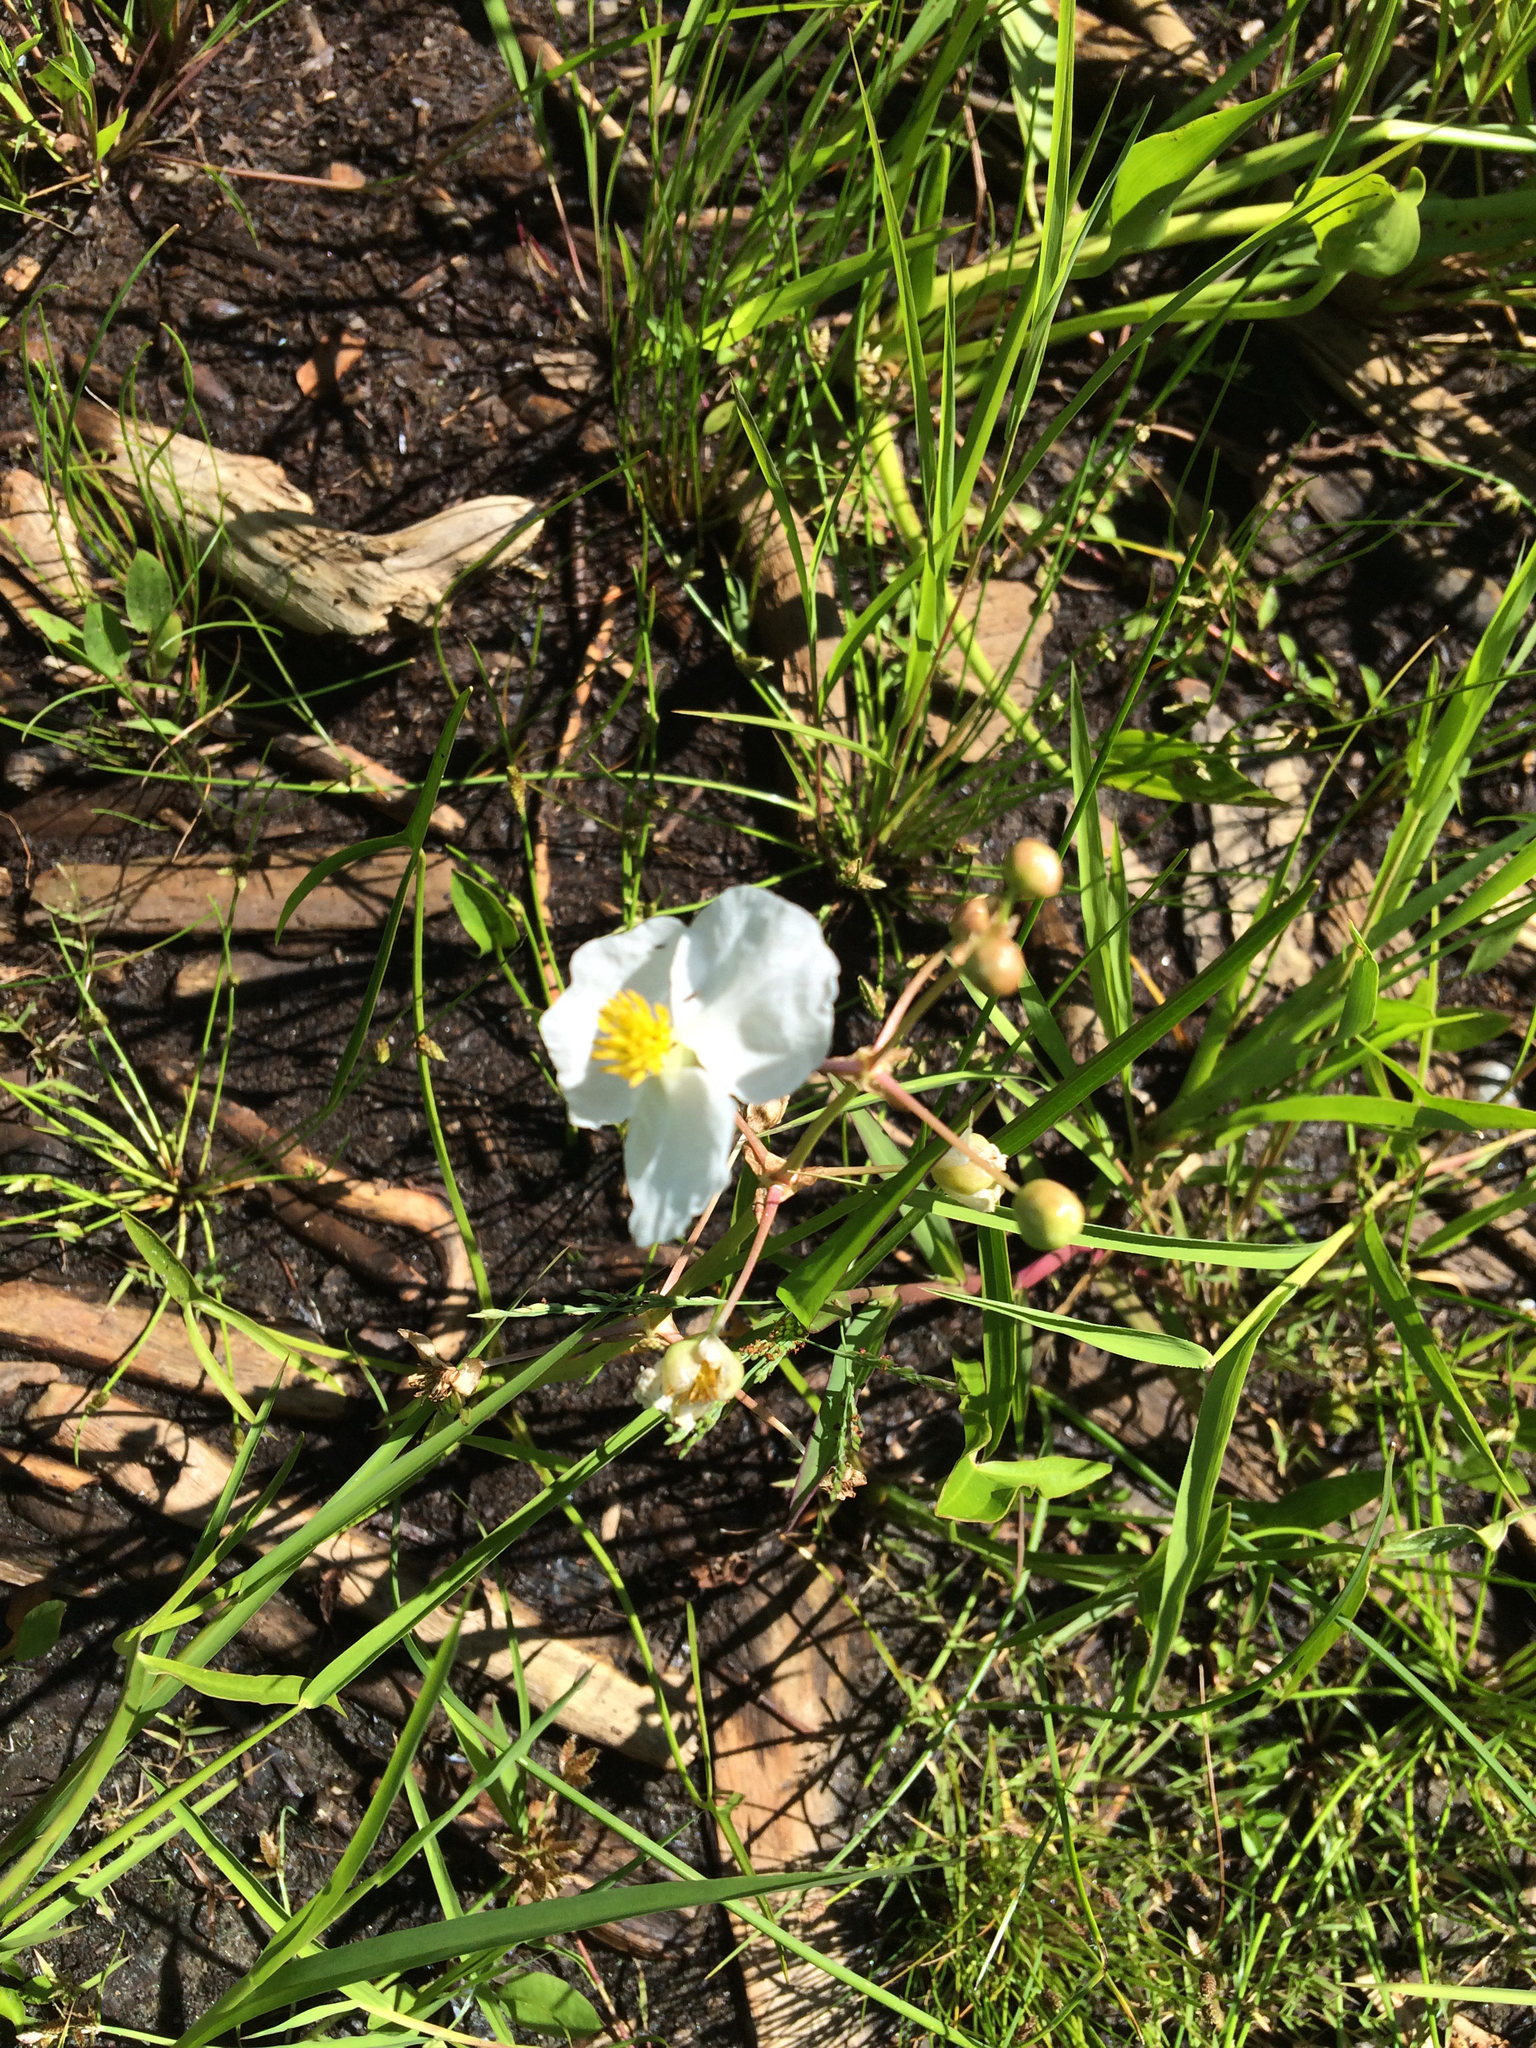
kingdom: Plantae
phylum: Tracheophyta
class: Liliopsida
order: Alismatales
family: Alismataceae
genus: Sagittaria
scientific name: Sagittaria latifolia
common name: Duck-potato
